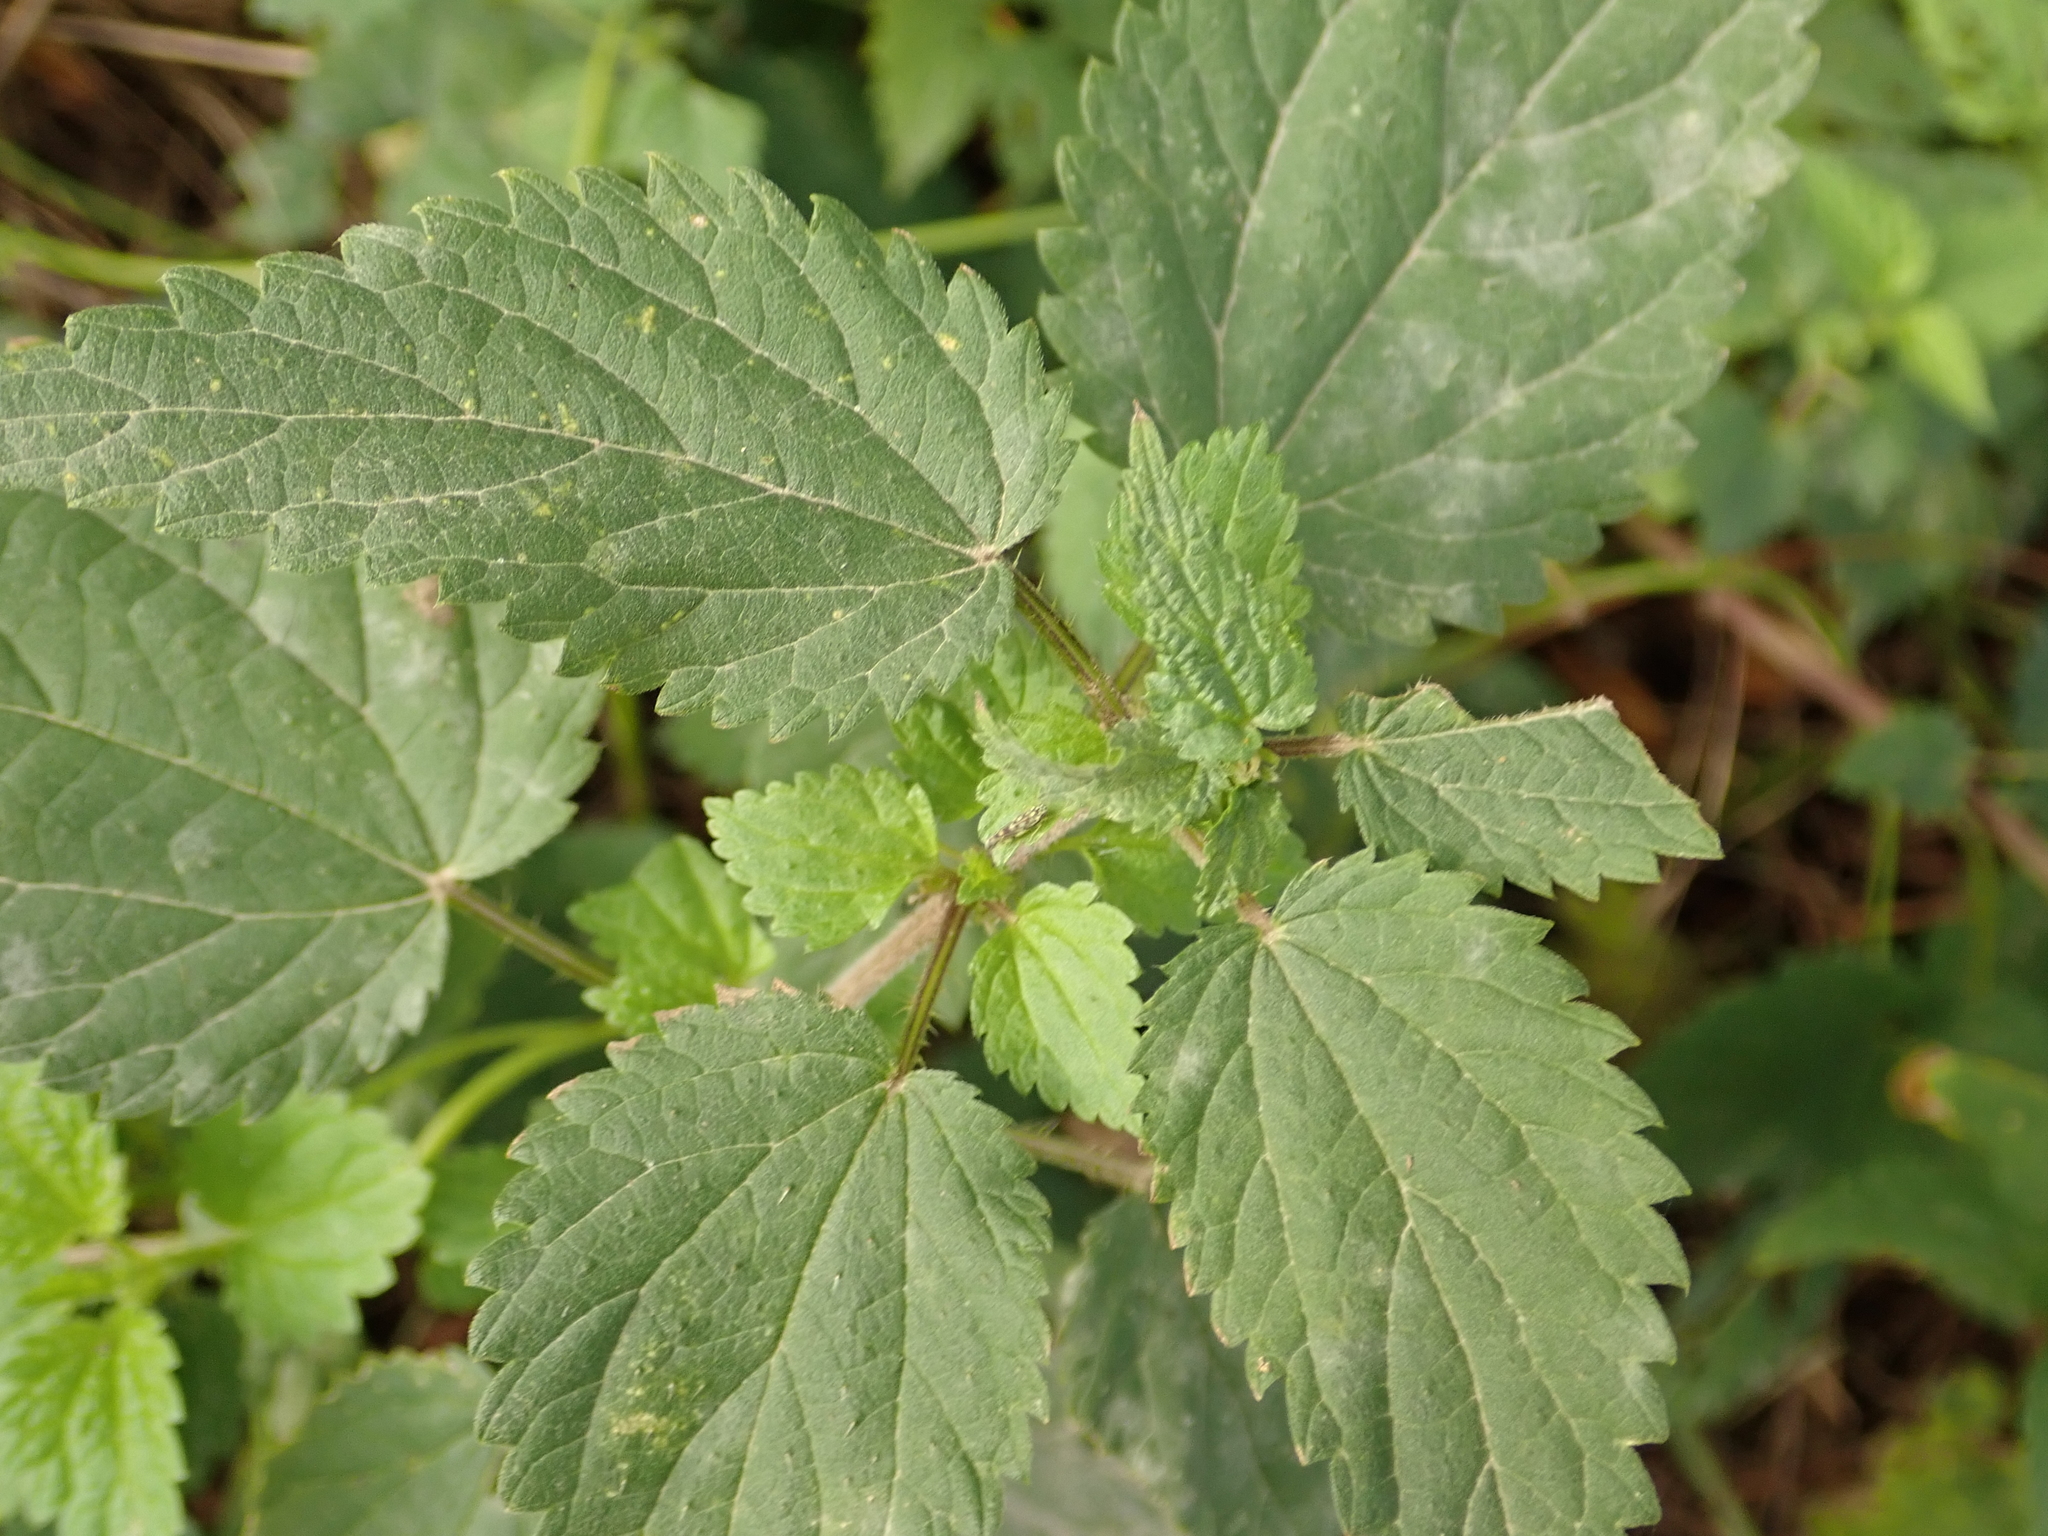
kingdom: Plantae
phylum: Tracheophyta
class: Magnoliopsida
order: Rosales
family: Urticaceae
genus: Urtica
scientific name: Urtica dioica
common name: Common nettle
